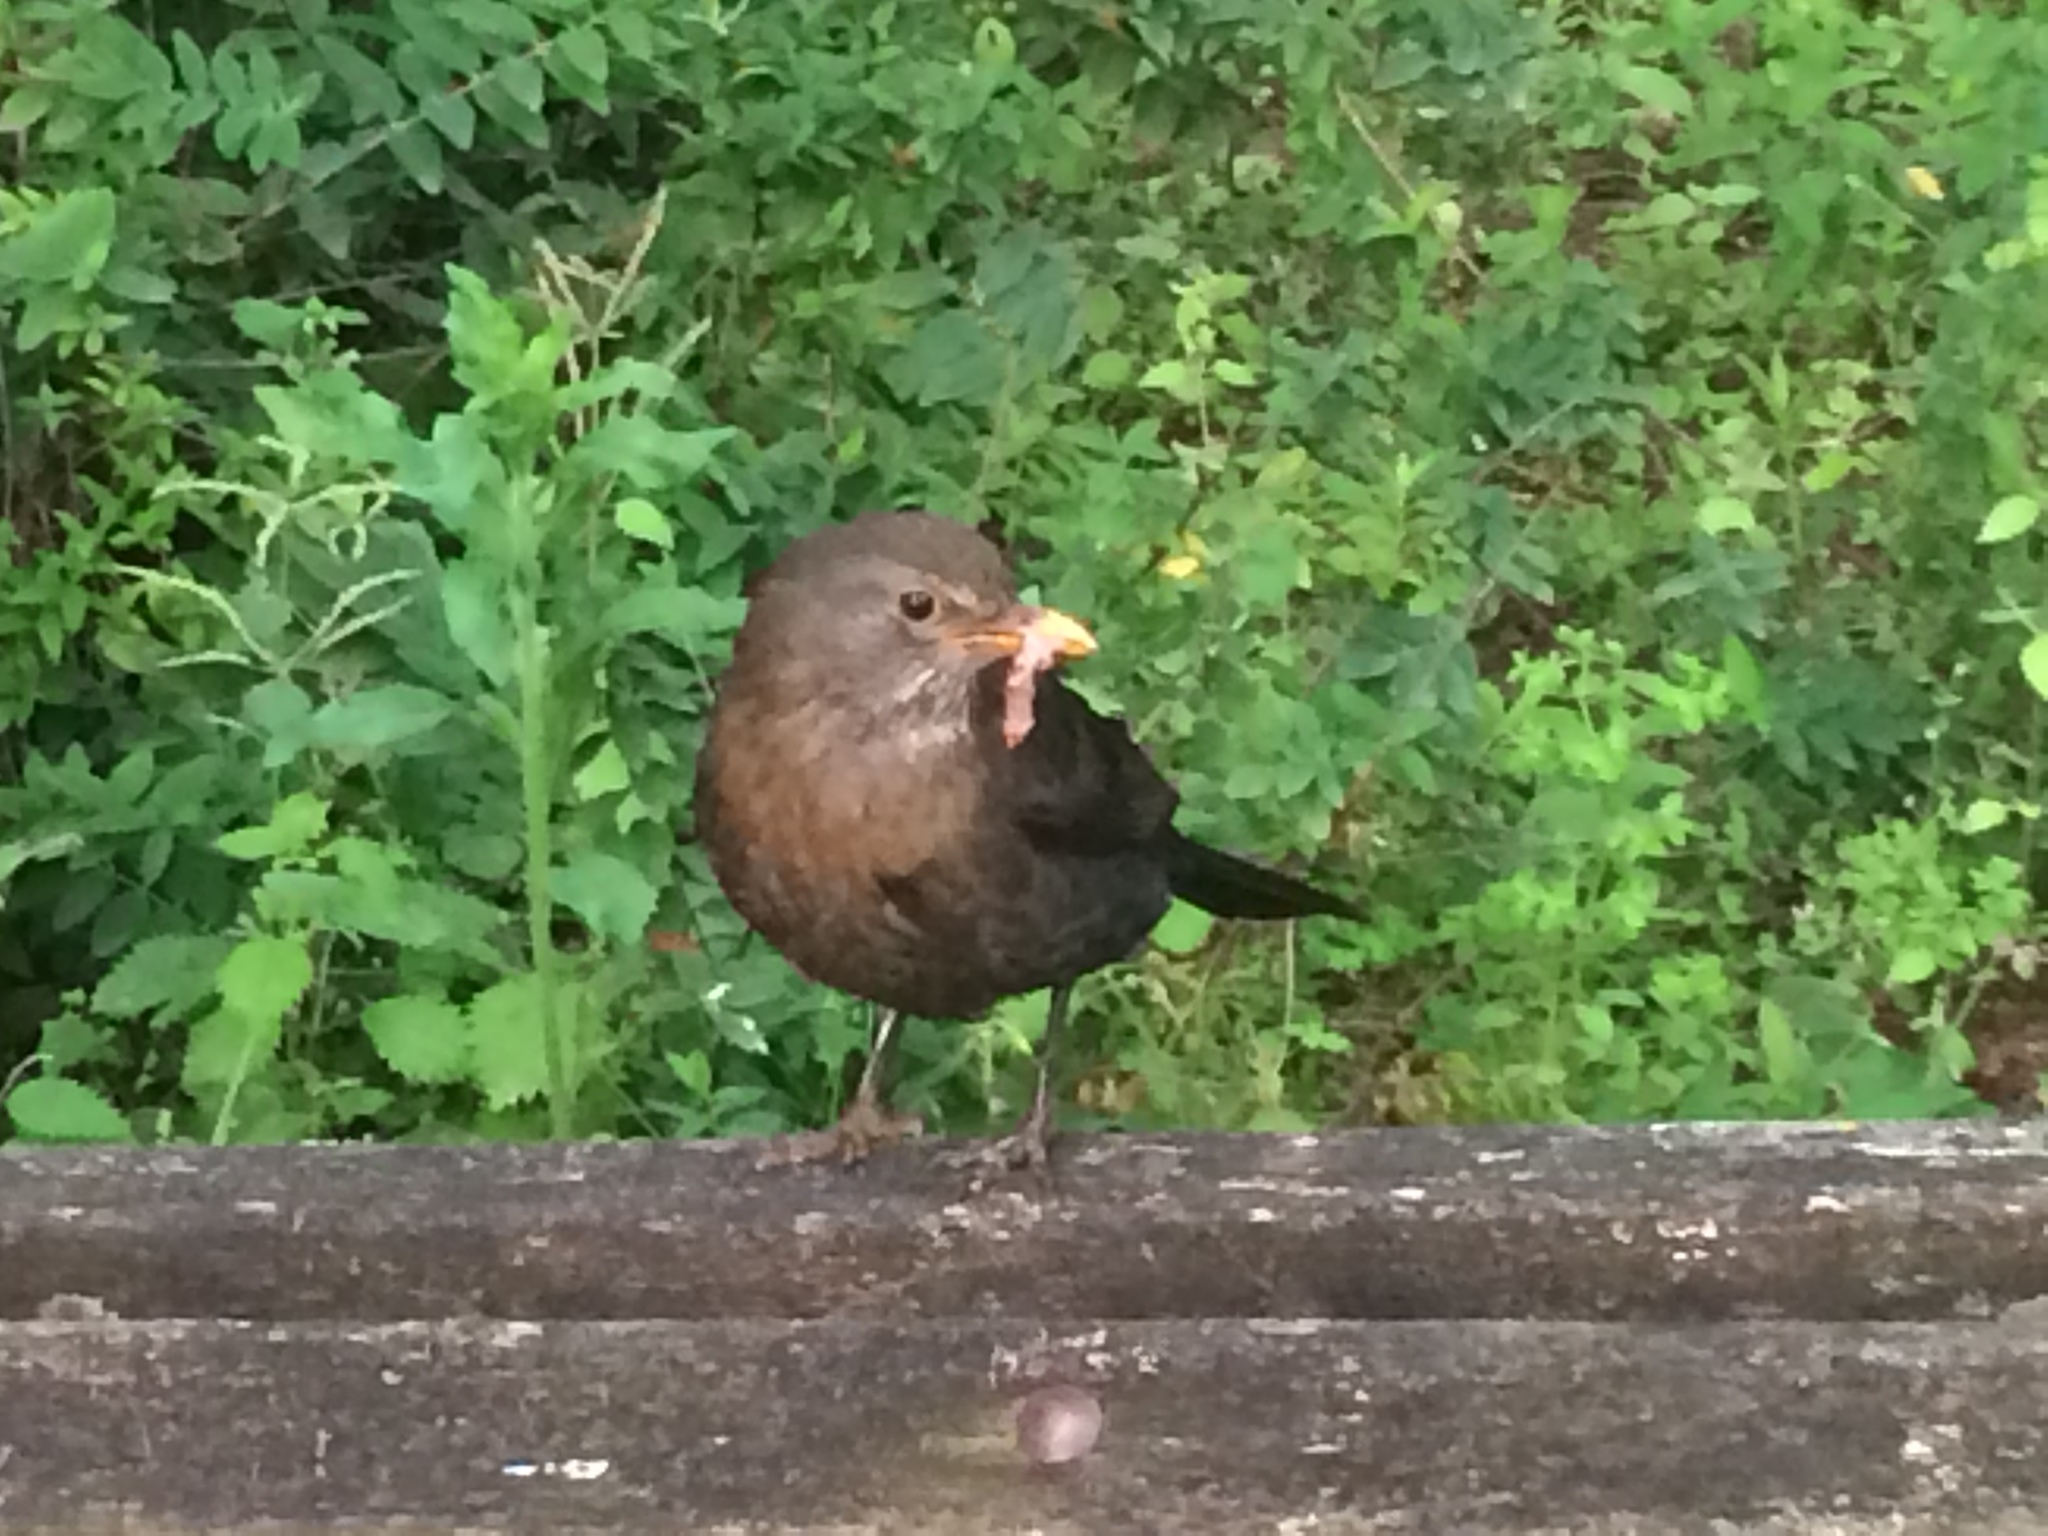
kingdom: Animalia
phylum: Chordata
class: Aves
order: Passeriformes
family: Turdidae
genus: Turdus
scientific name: Turdus merula
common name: Common blackbird
